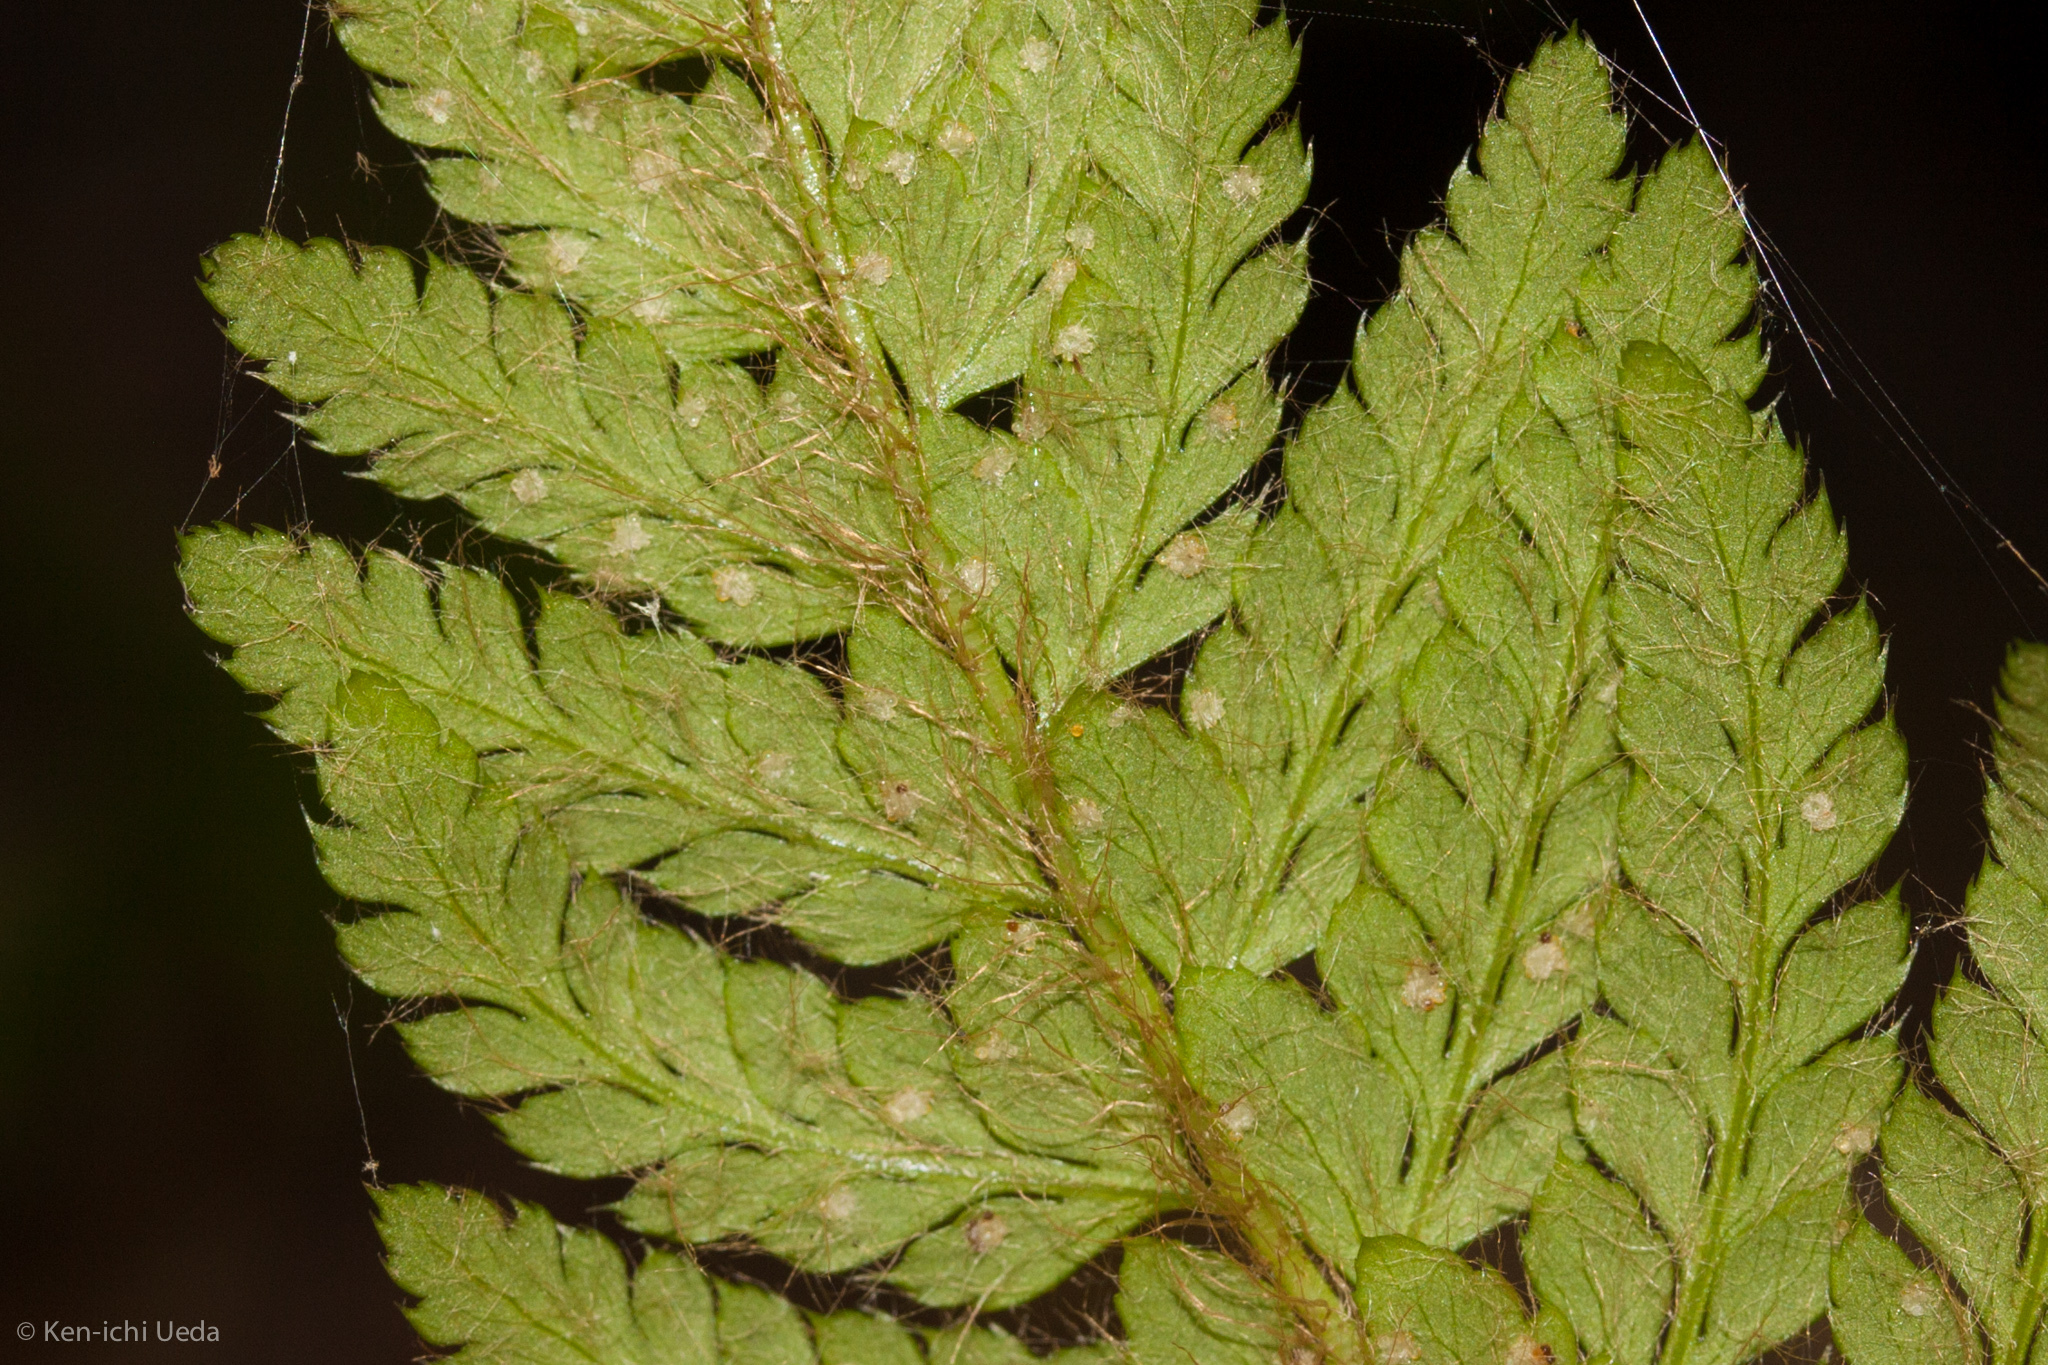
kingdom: Plantae
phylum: Tracheophyta
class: Polypodiopsida
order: Polypodiales
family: Dryopteridaceae
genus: Polystichum
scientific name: Polystichum dudleyi
